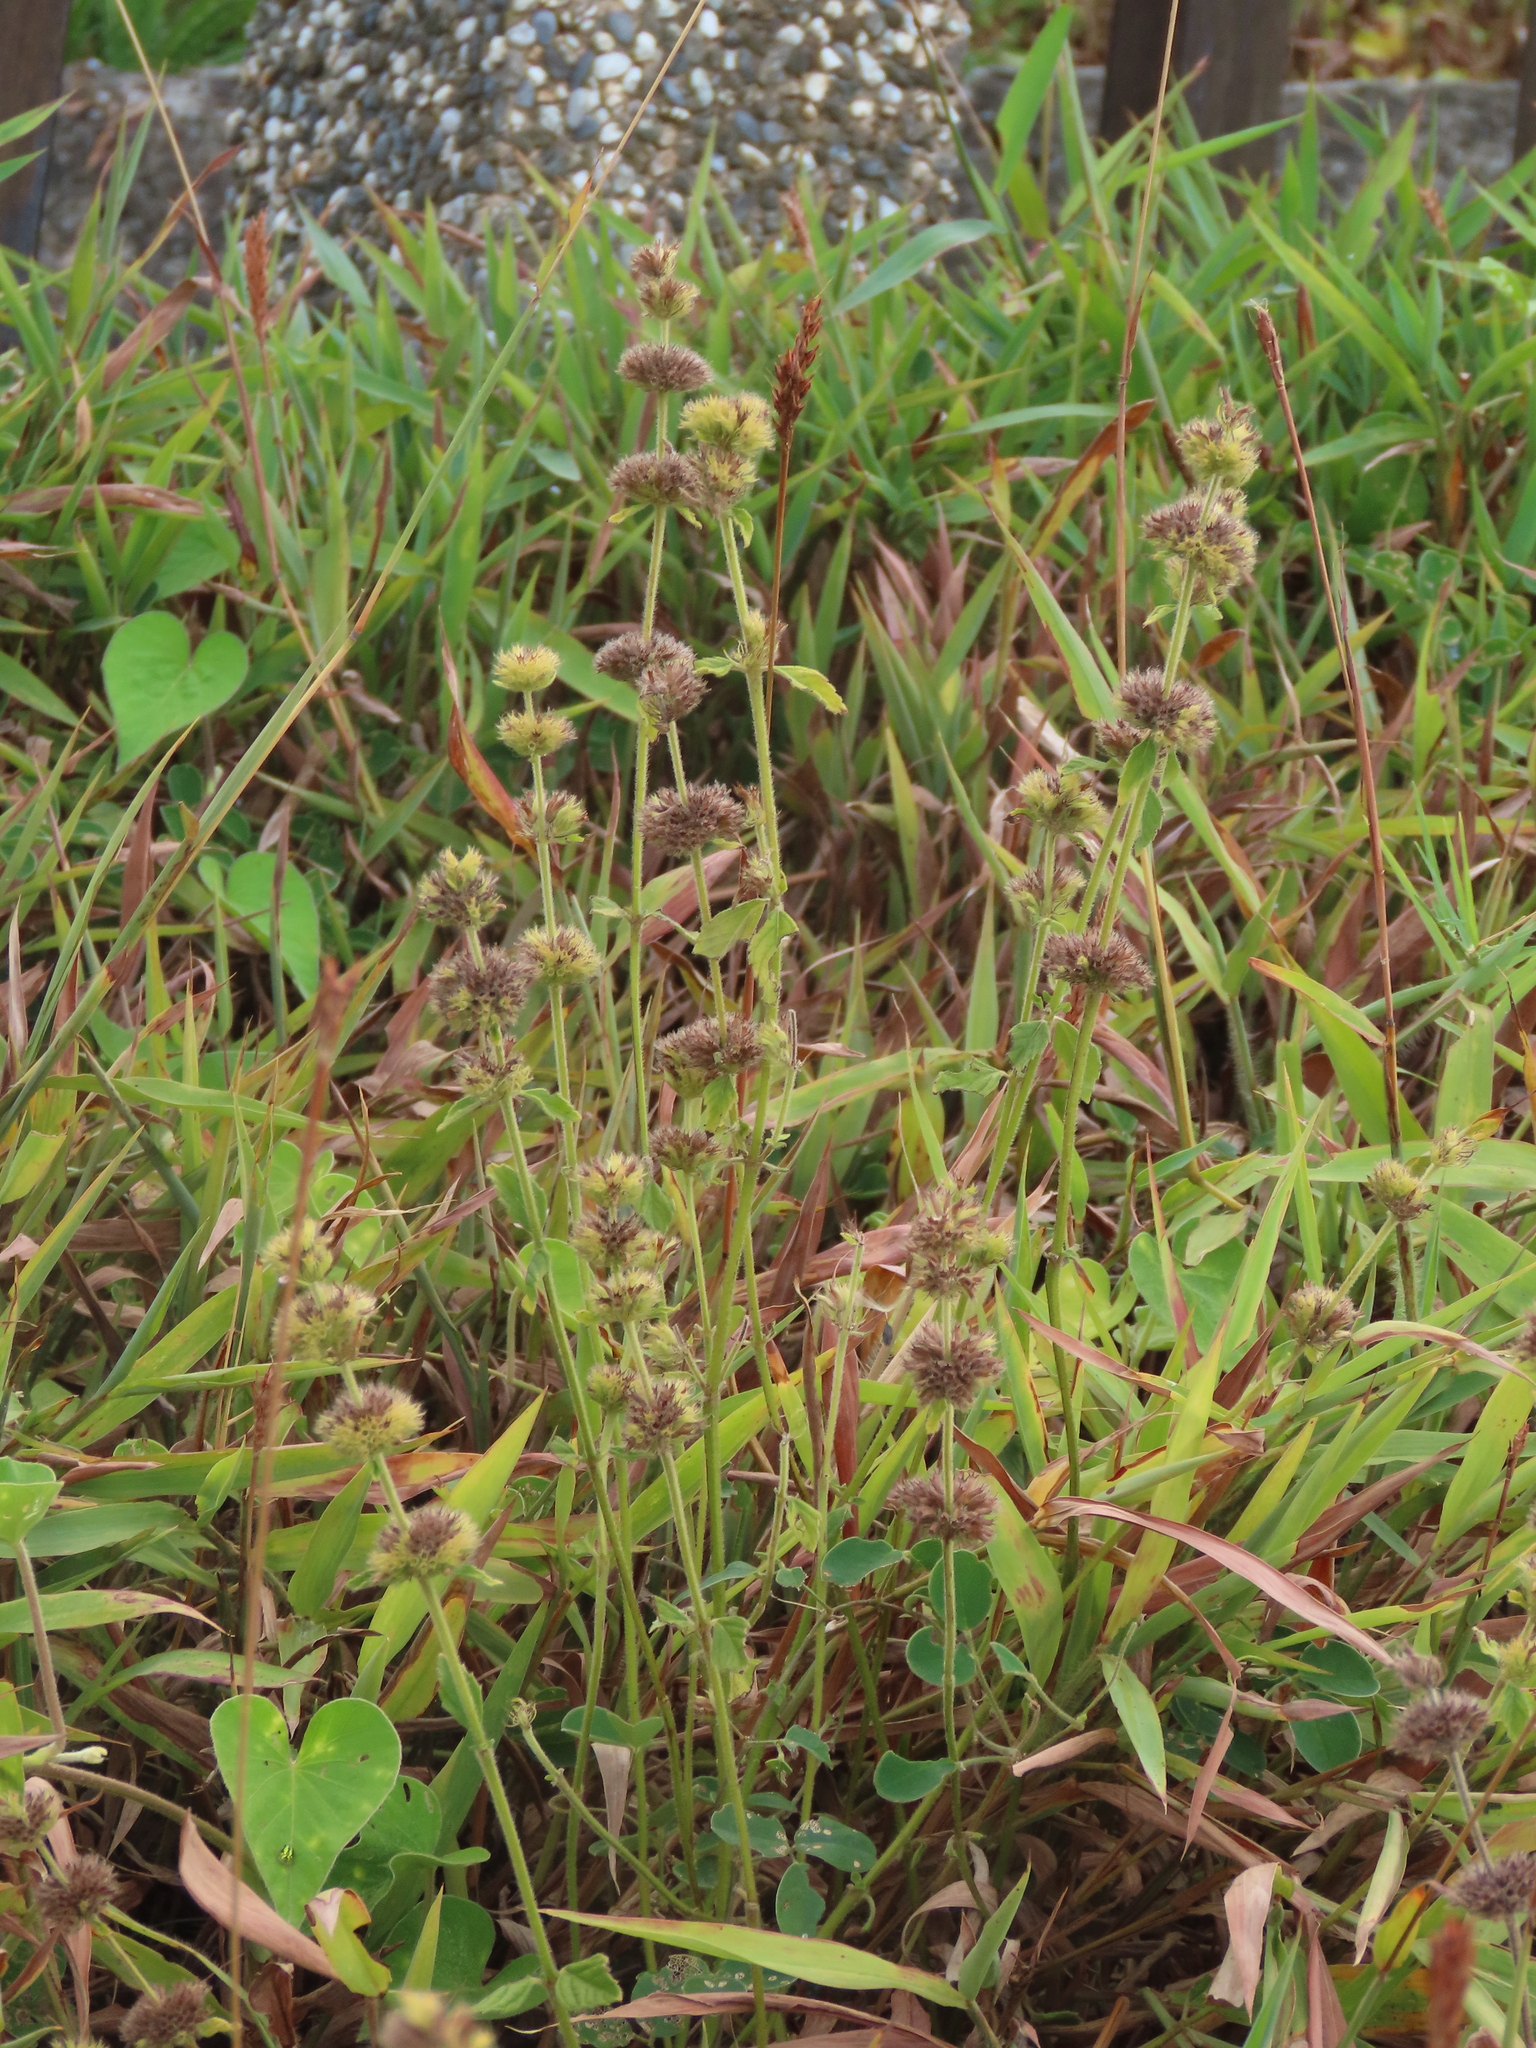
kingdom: Plantae
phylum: Tracheophyta
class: Magnoliopsida
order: Lamiales
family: Lamiaceae
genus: Clinopodium
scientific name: Clinopodium chinense
